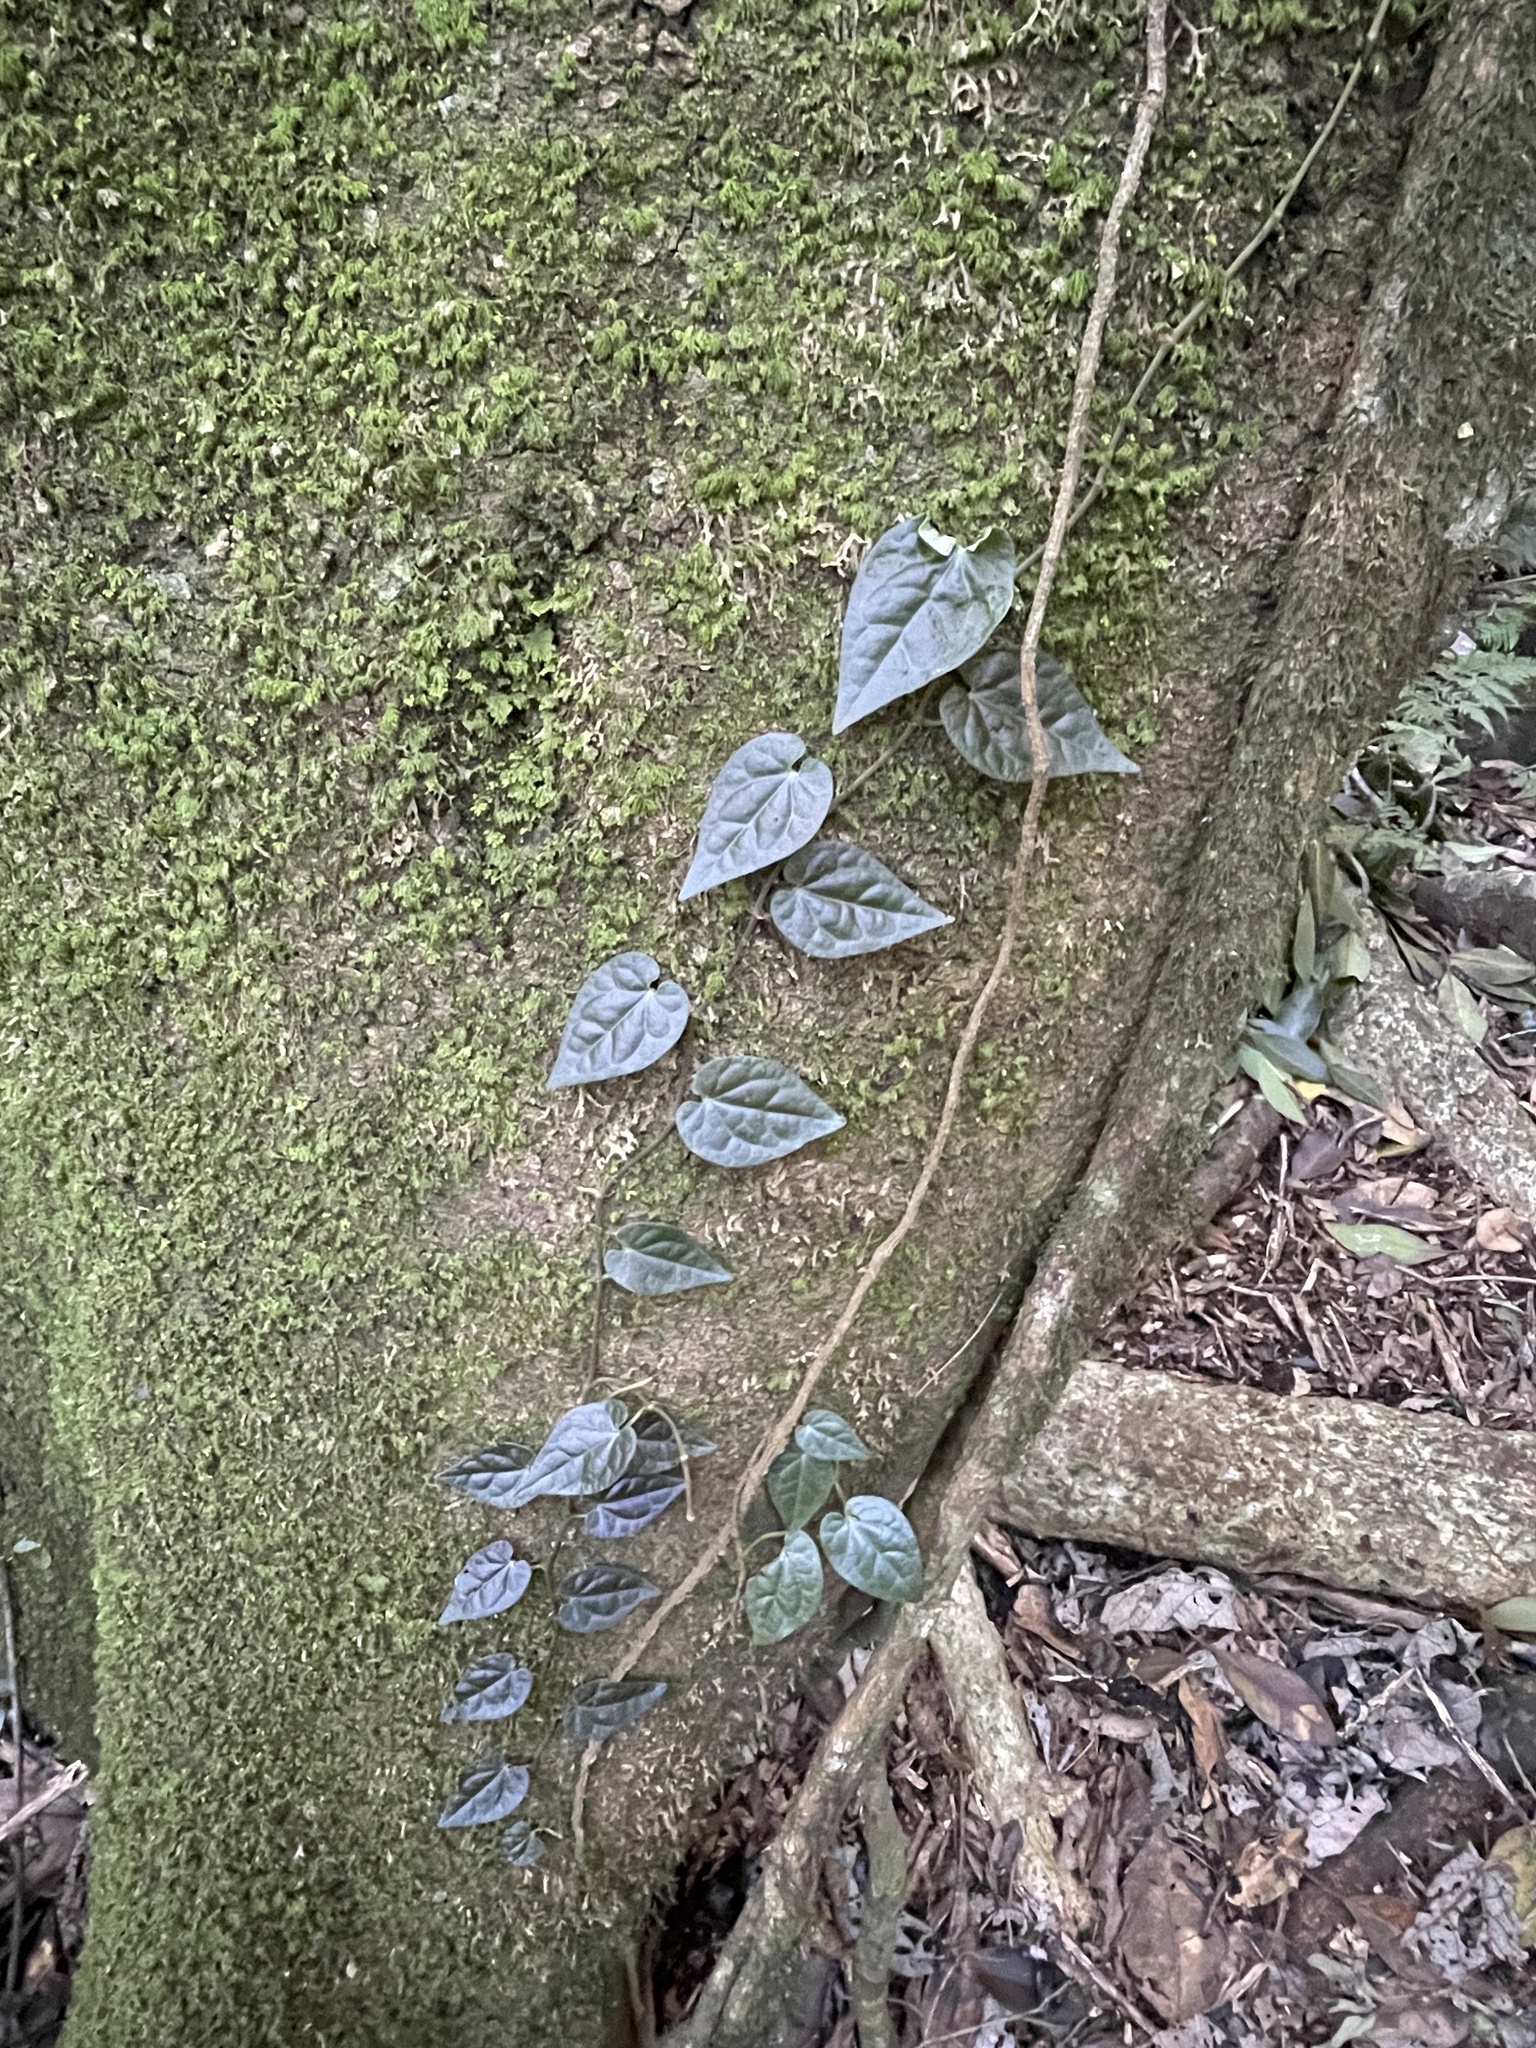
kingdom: Plantae
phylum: Tracheophyta
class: Magnoliopsida
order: Piperales
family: Piperaceae
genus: Piper
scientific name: Piper hederaceum
